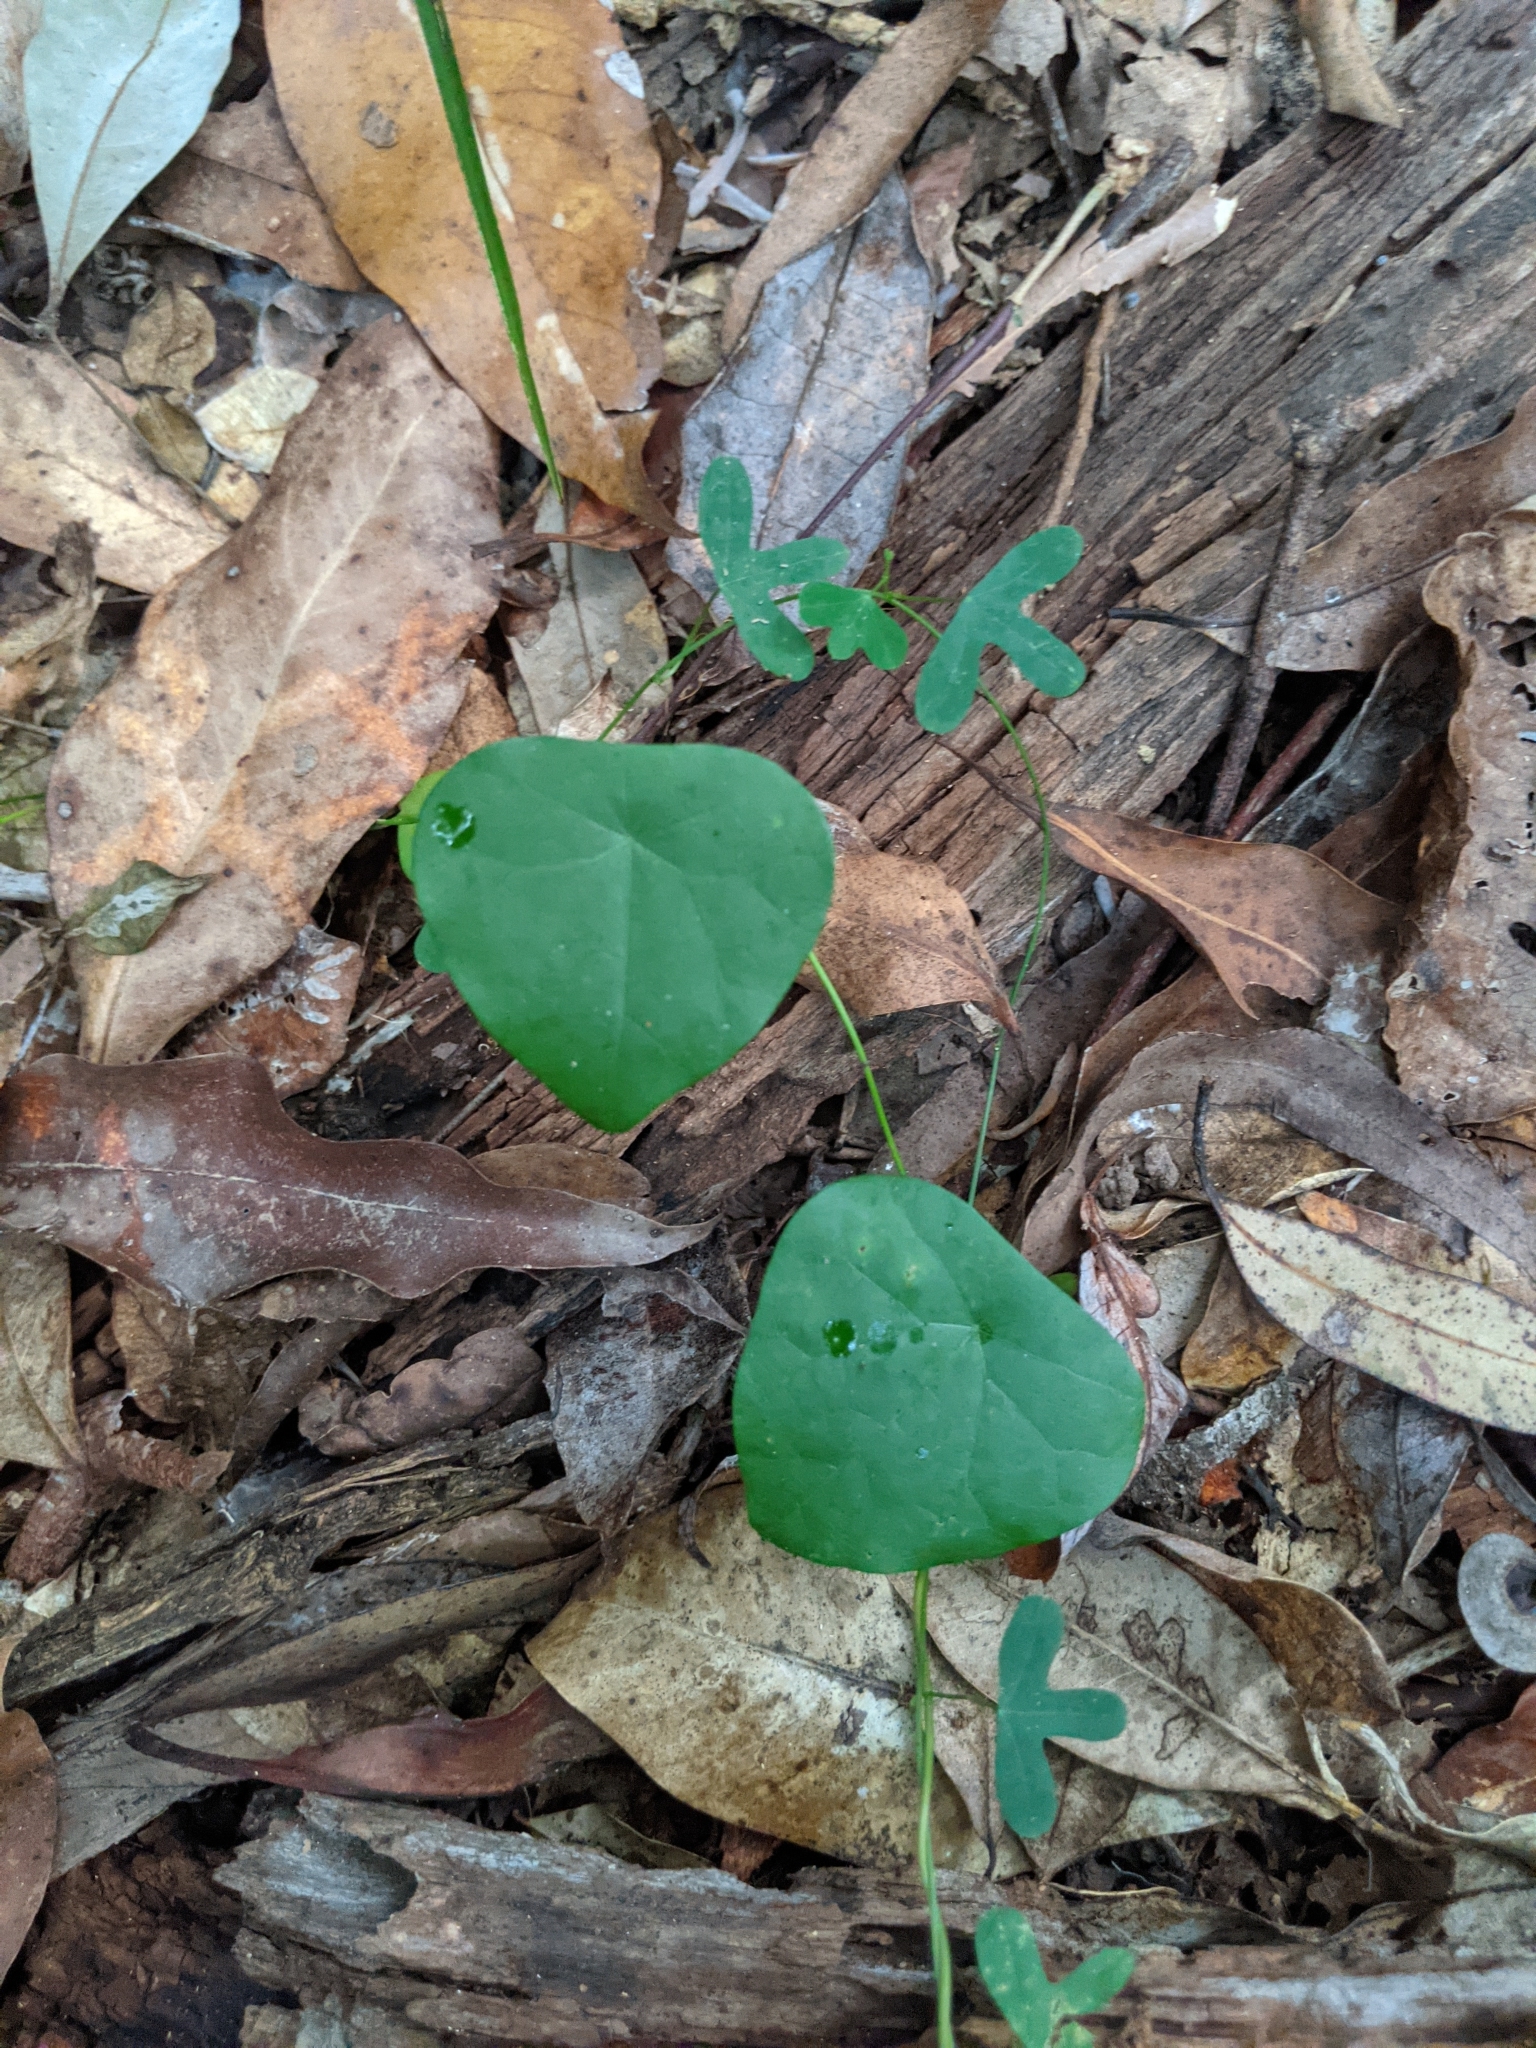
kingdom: Plantae
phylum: Tracheophyta
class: Magnoliopsida
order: Ranunculales
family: Menispermaceae
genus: Stephania
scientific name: Stephania japonica
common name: Snake vine
